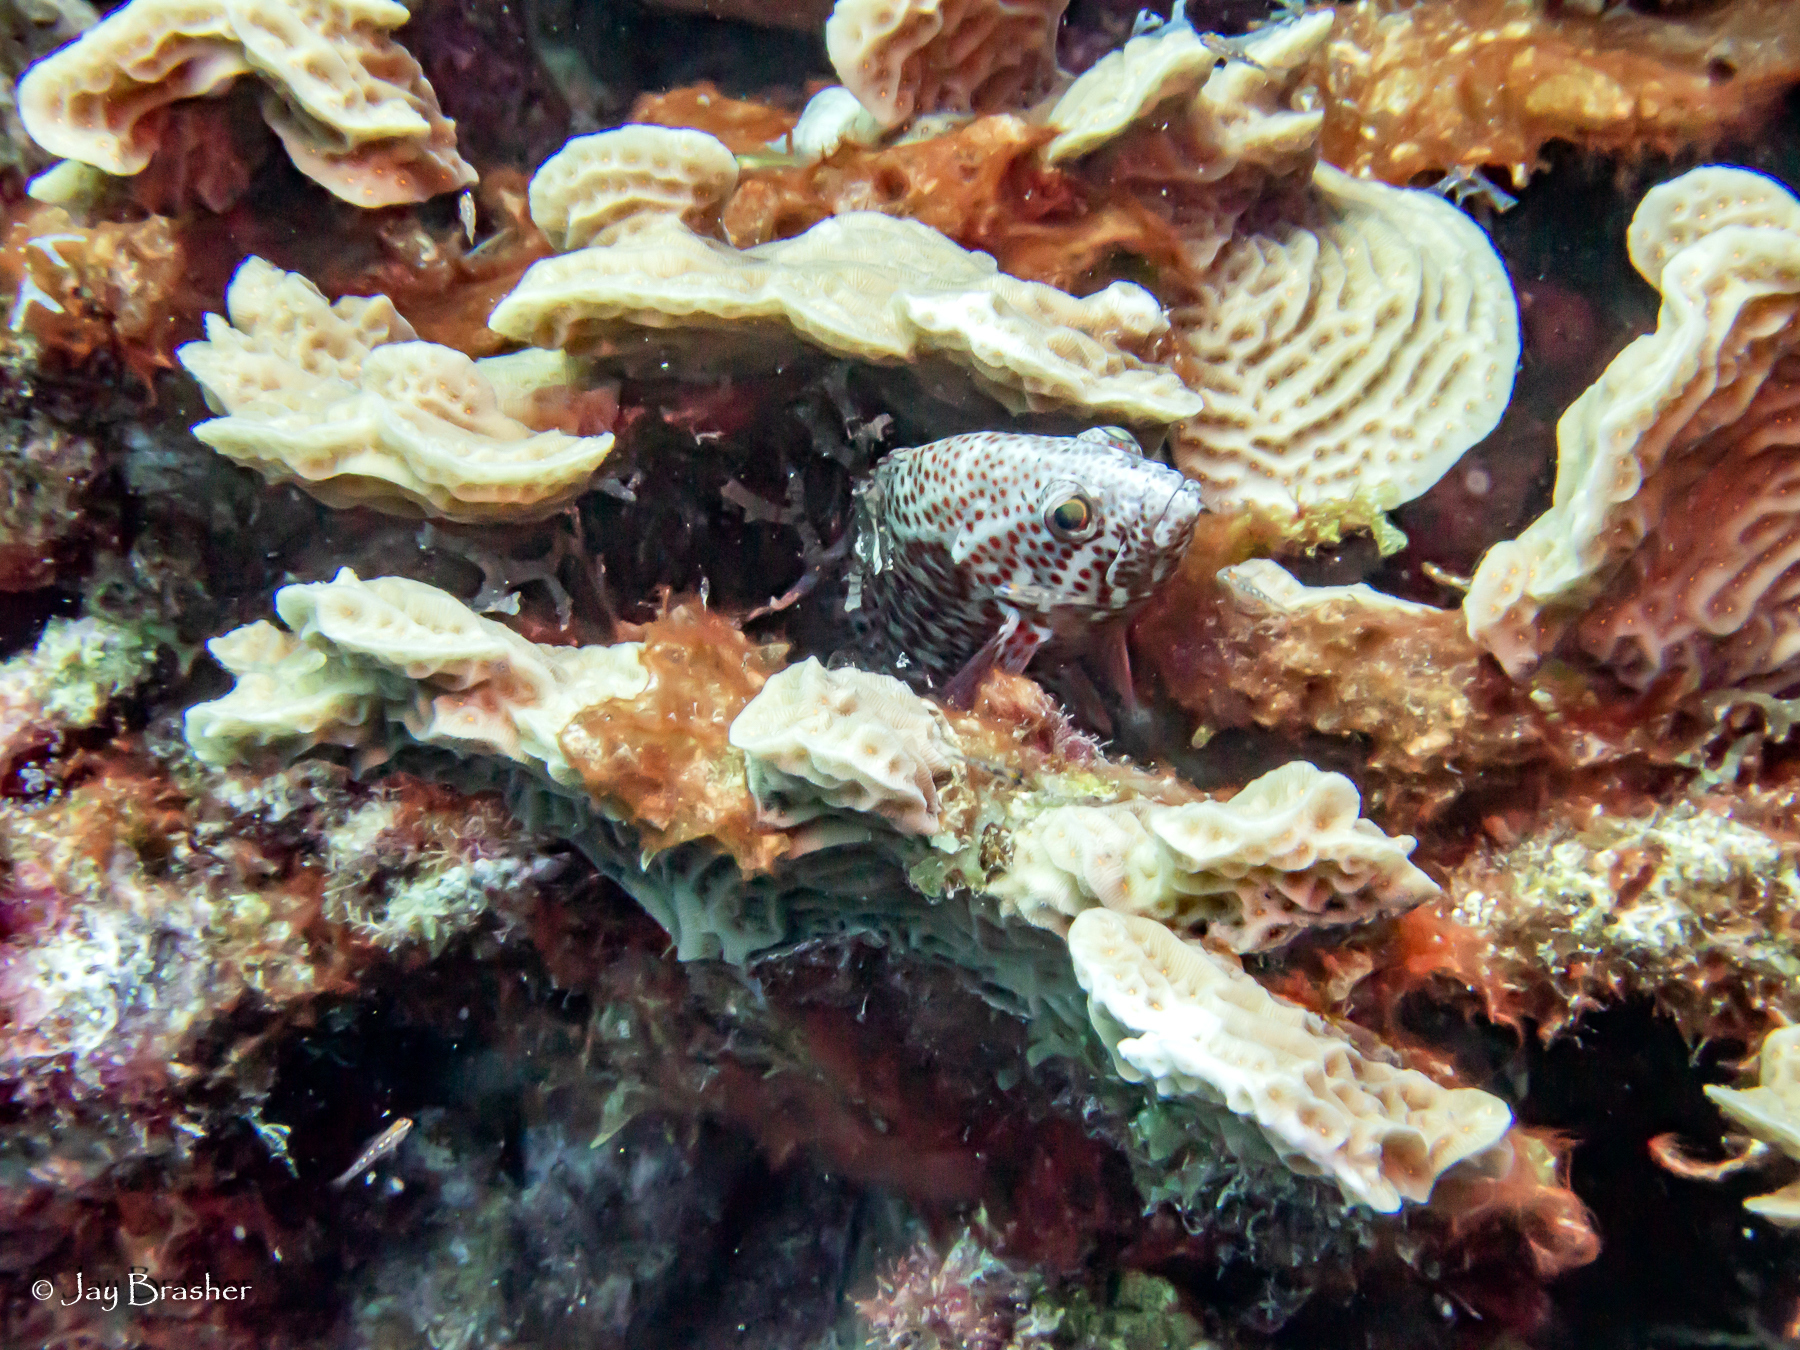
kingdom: Animalia
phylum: Chordata
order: Perciformes
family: Serranidae
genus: Cephalopholis
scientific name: Cephalopholis cruentata
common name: Graysby
